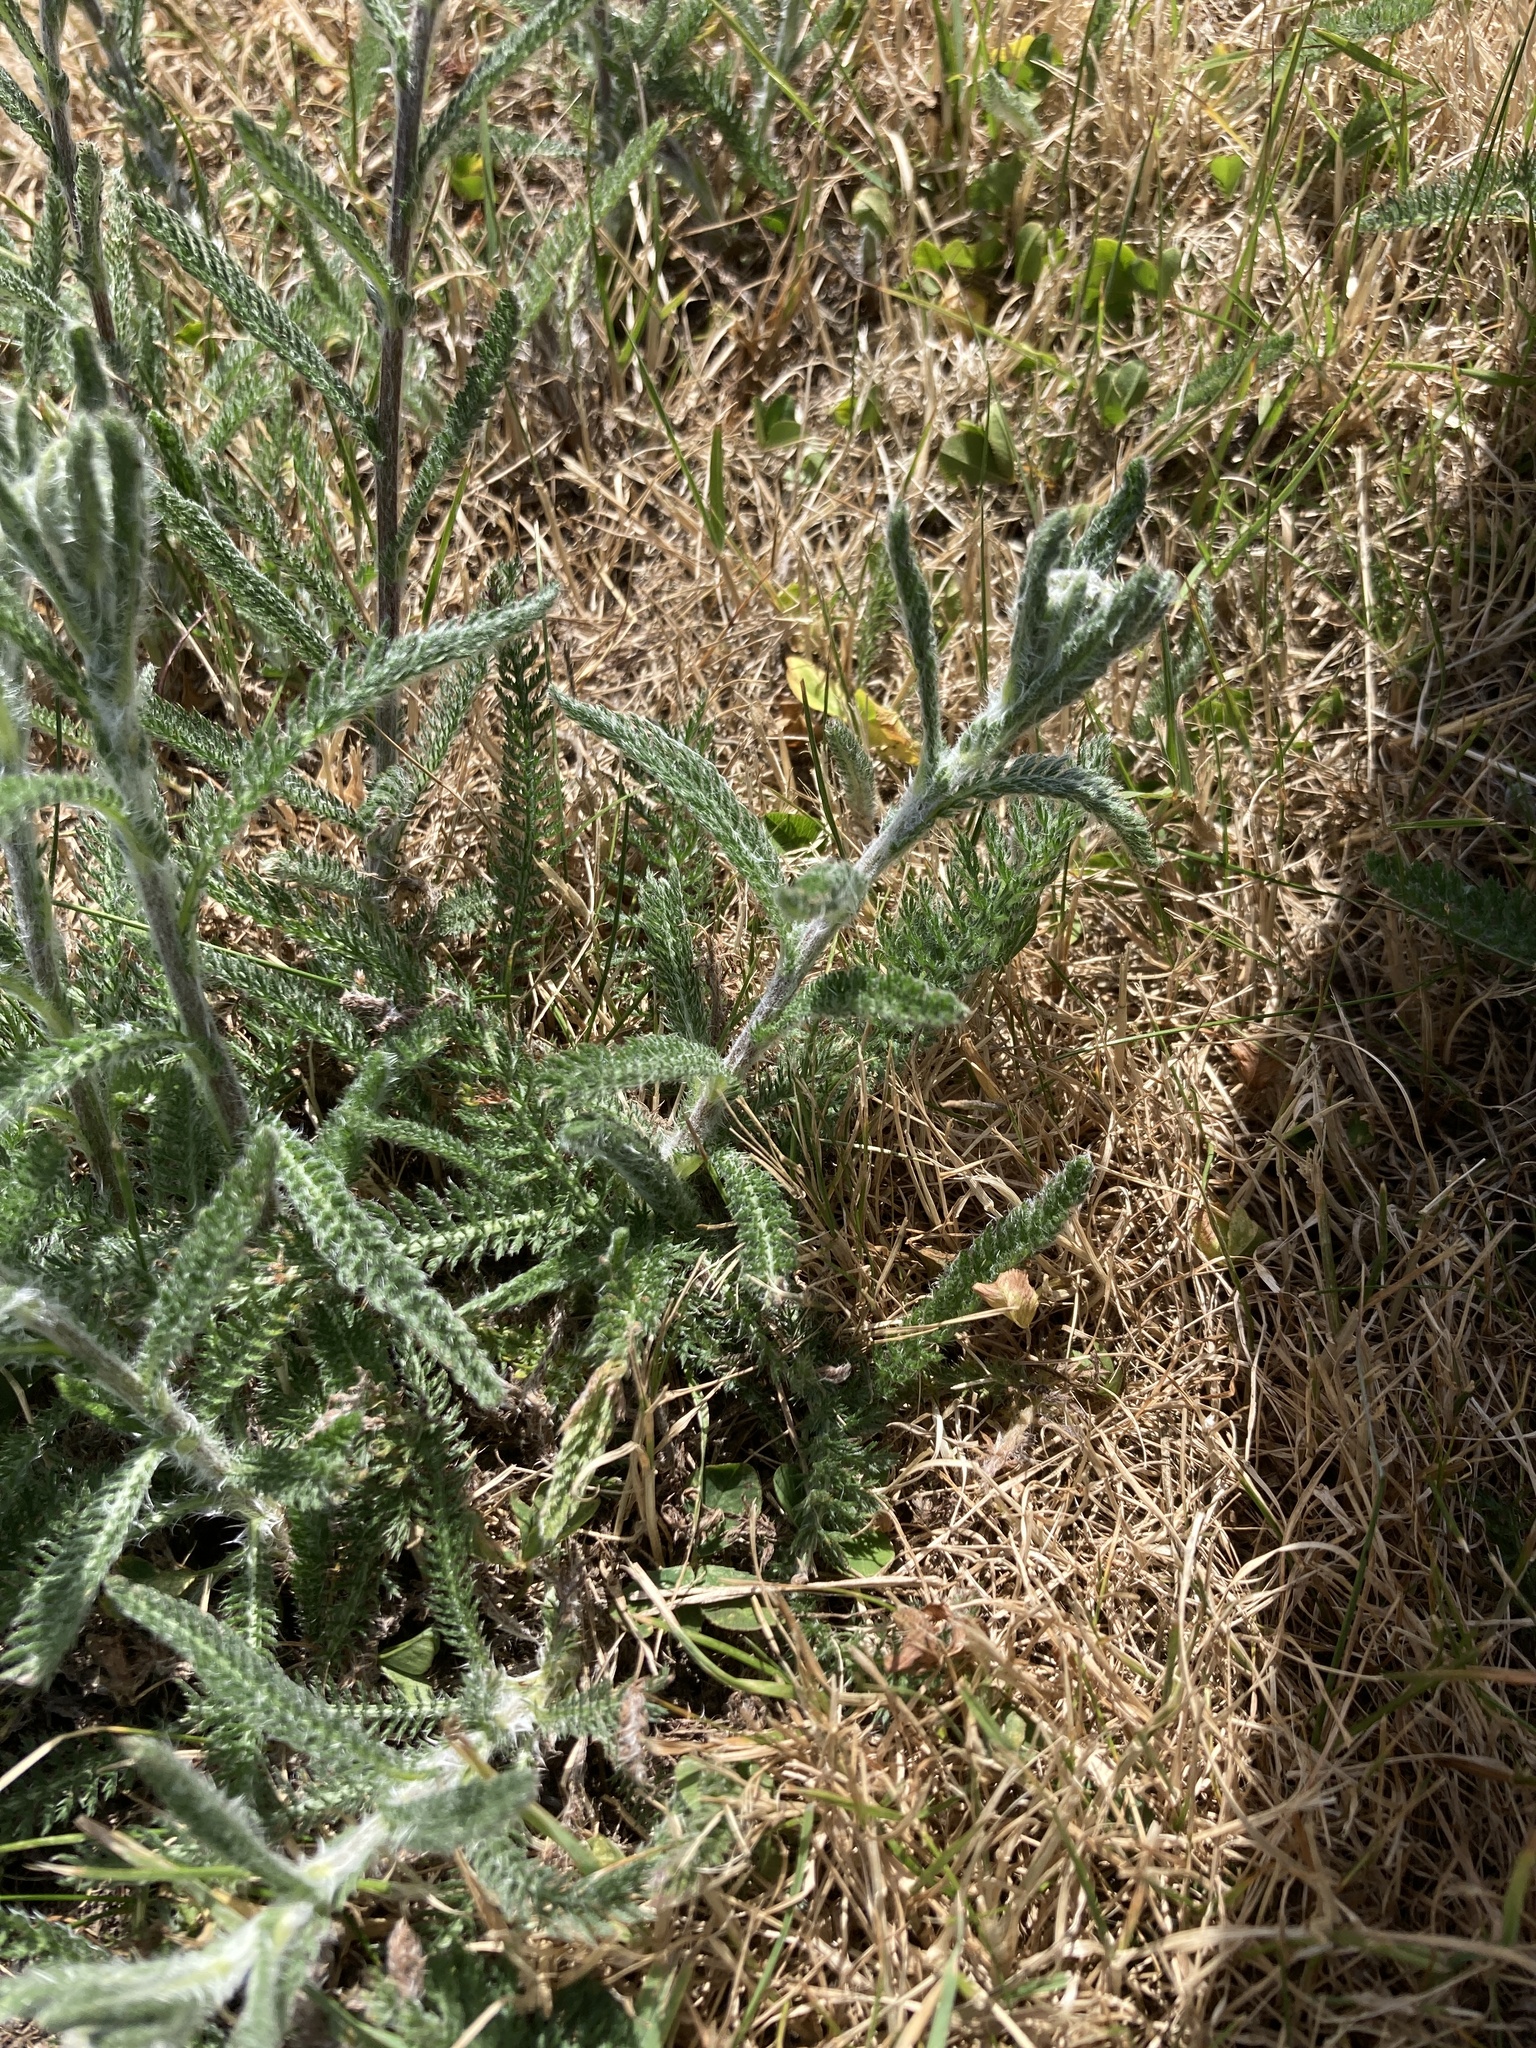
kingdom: Plantae
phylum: Tracheophyta
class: Magnoliopsida
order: Asterales
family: Asteraceae
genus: Achillea
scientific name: Achillea millefolium
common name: Yarrow
